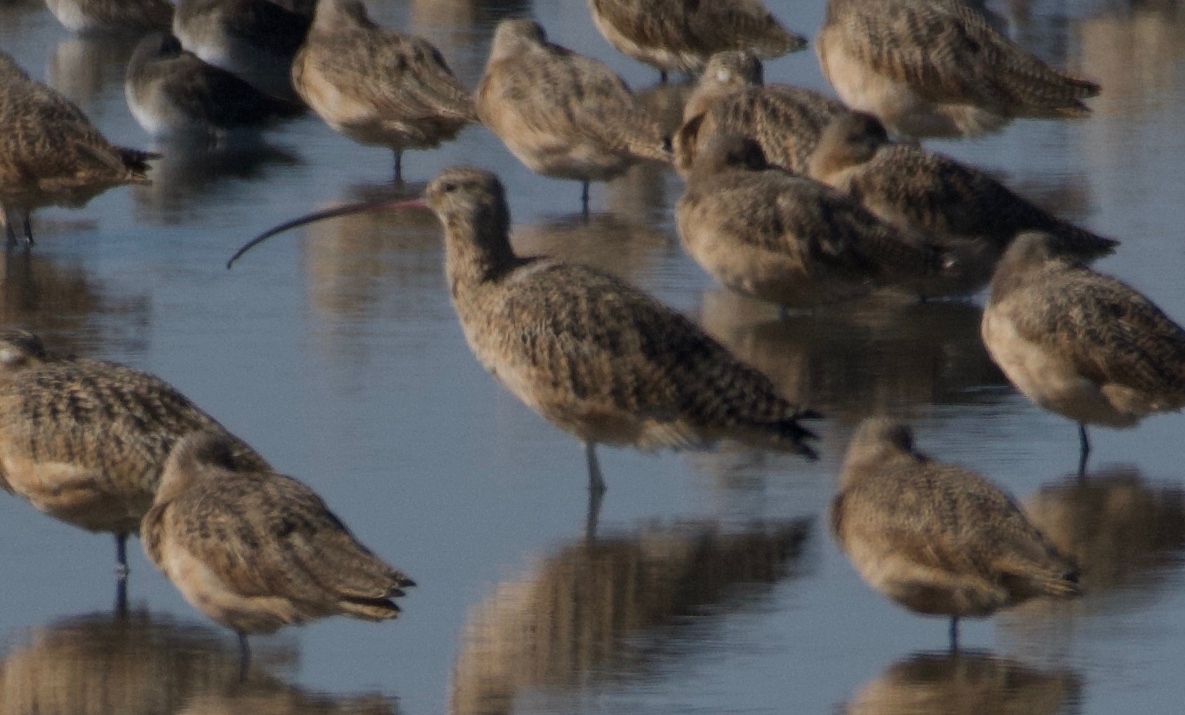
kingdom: Animalia
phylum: Chordata
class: Aves
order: Charadriiformes
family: Scolopacidae
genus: Numenius
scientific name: Numenius americanus
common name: Long-billed curlew
